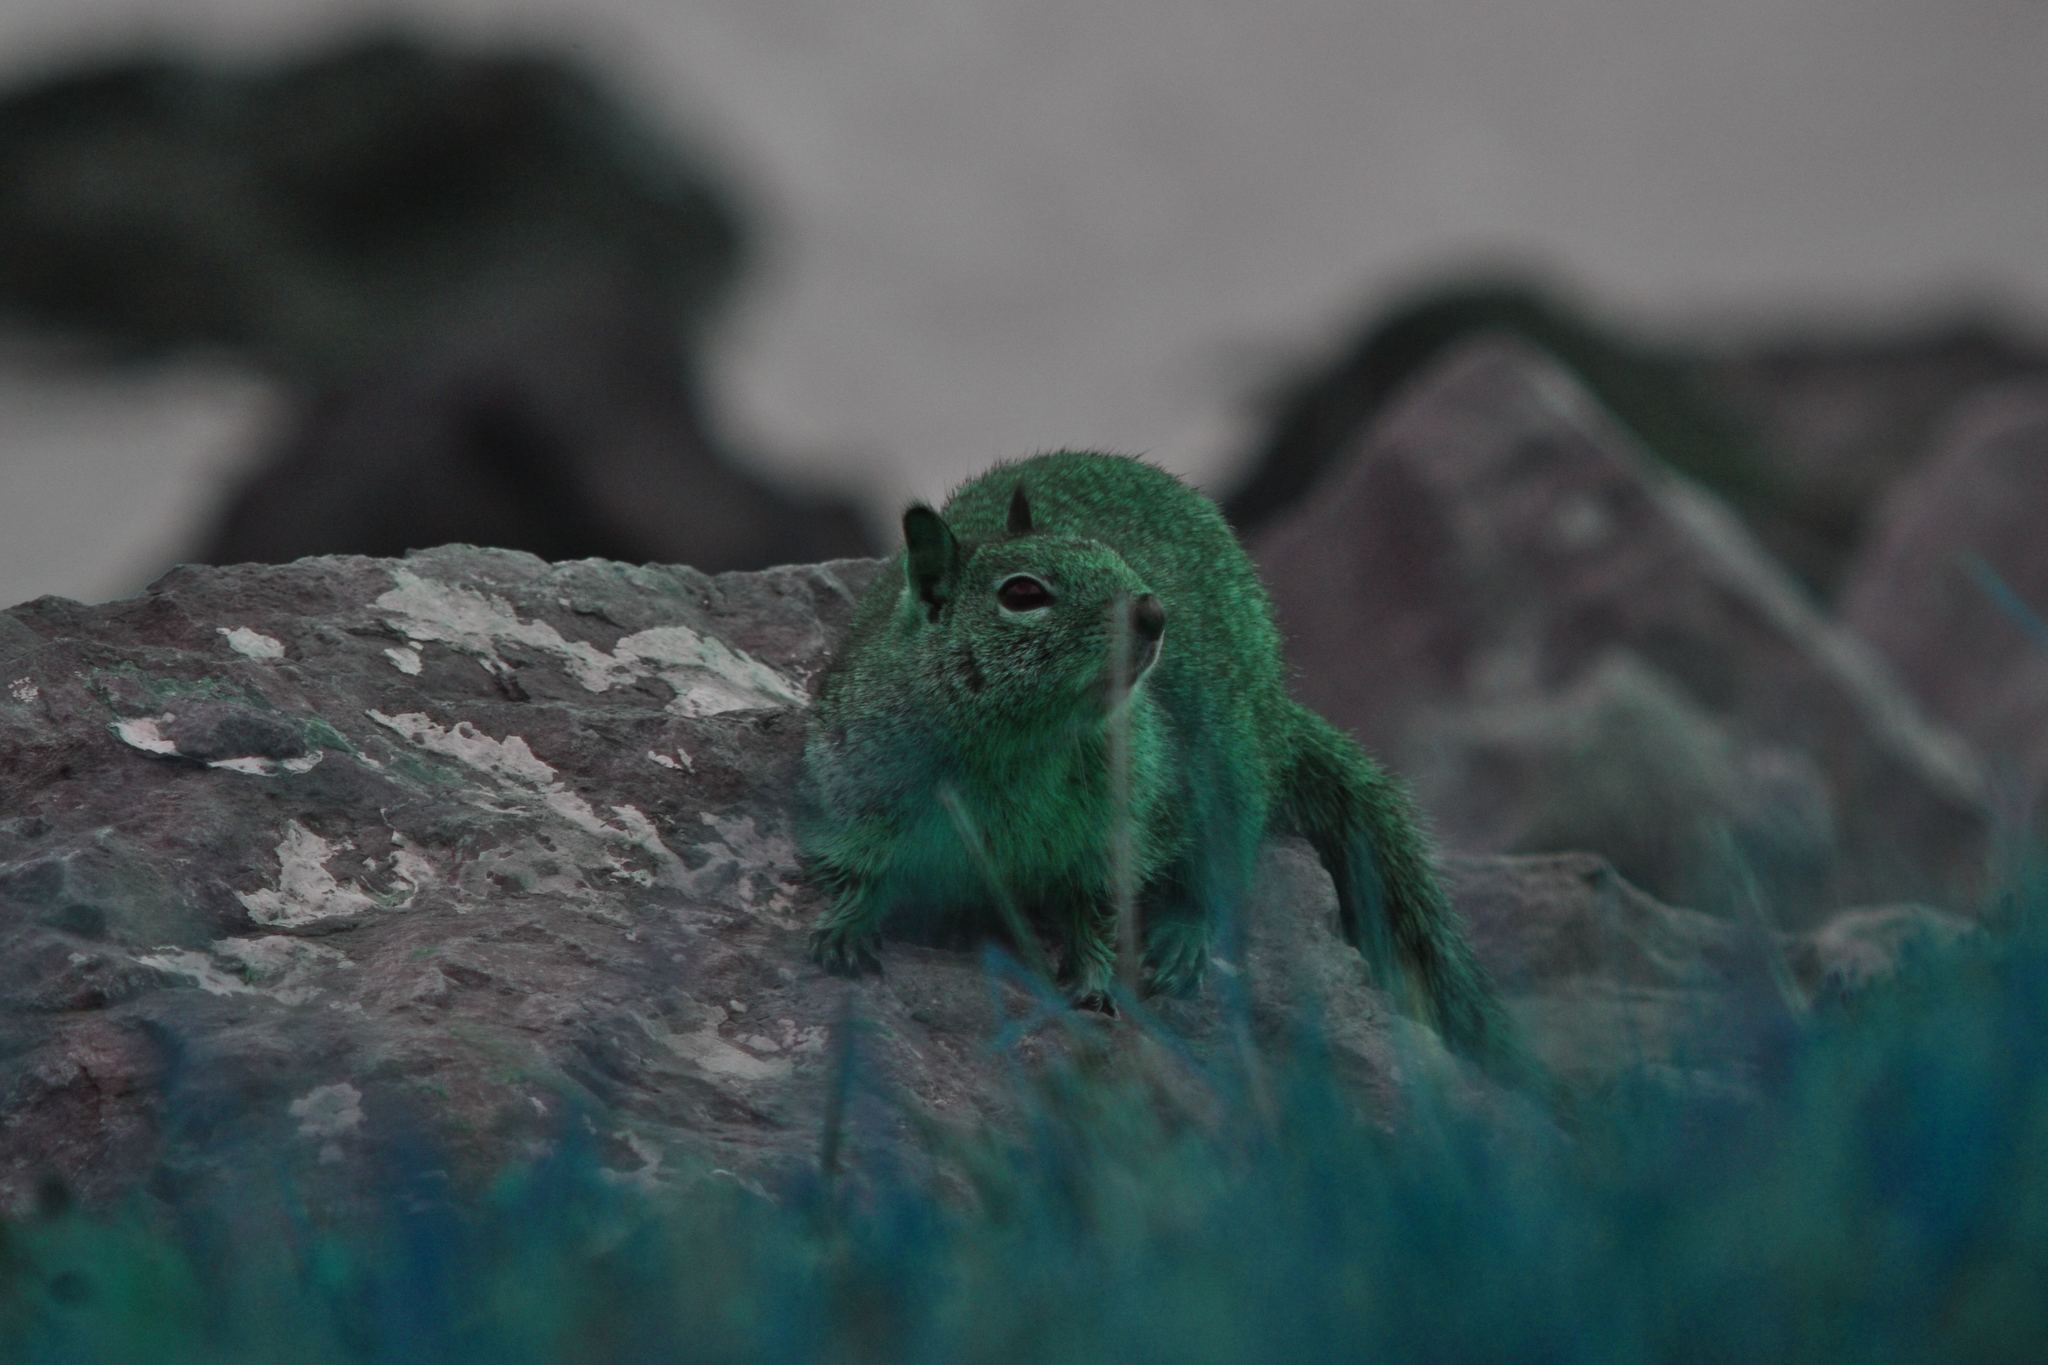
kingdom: Animalia
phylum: Chordata
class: Mammalia
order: Rodentia
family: Sciuridae
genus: Otospermophilus
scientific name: Otospermophilus beecheyi
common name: California ground squirrel
